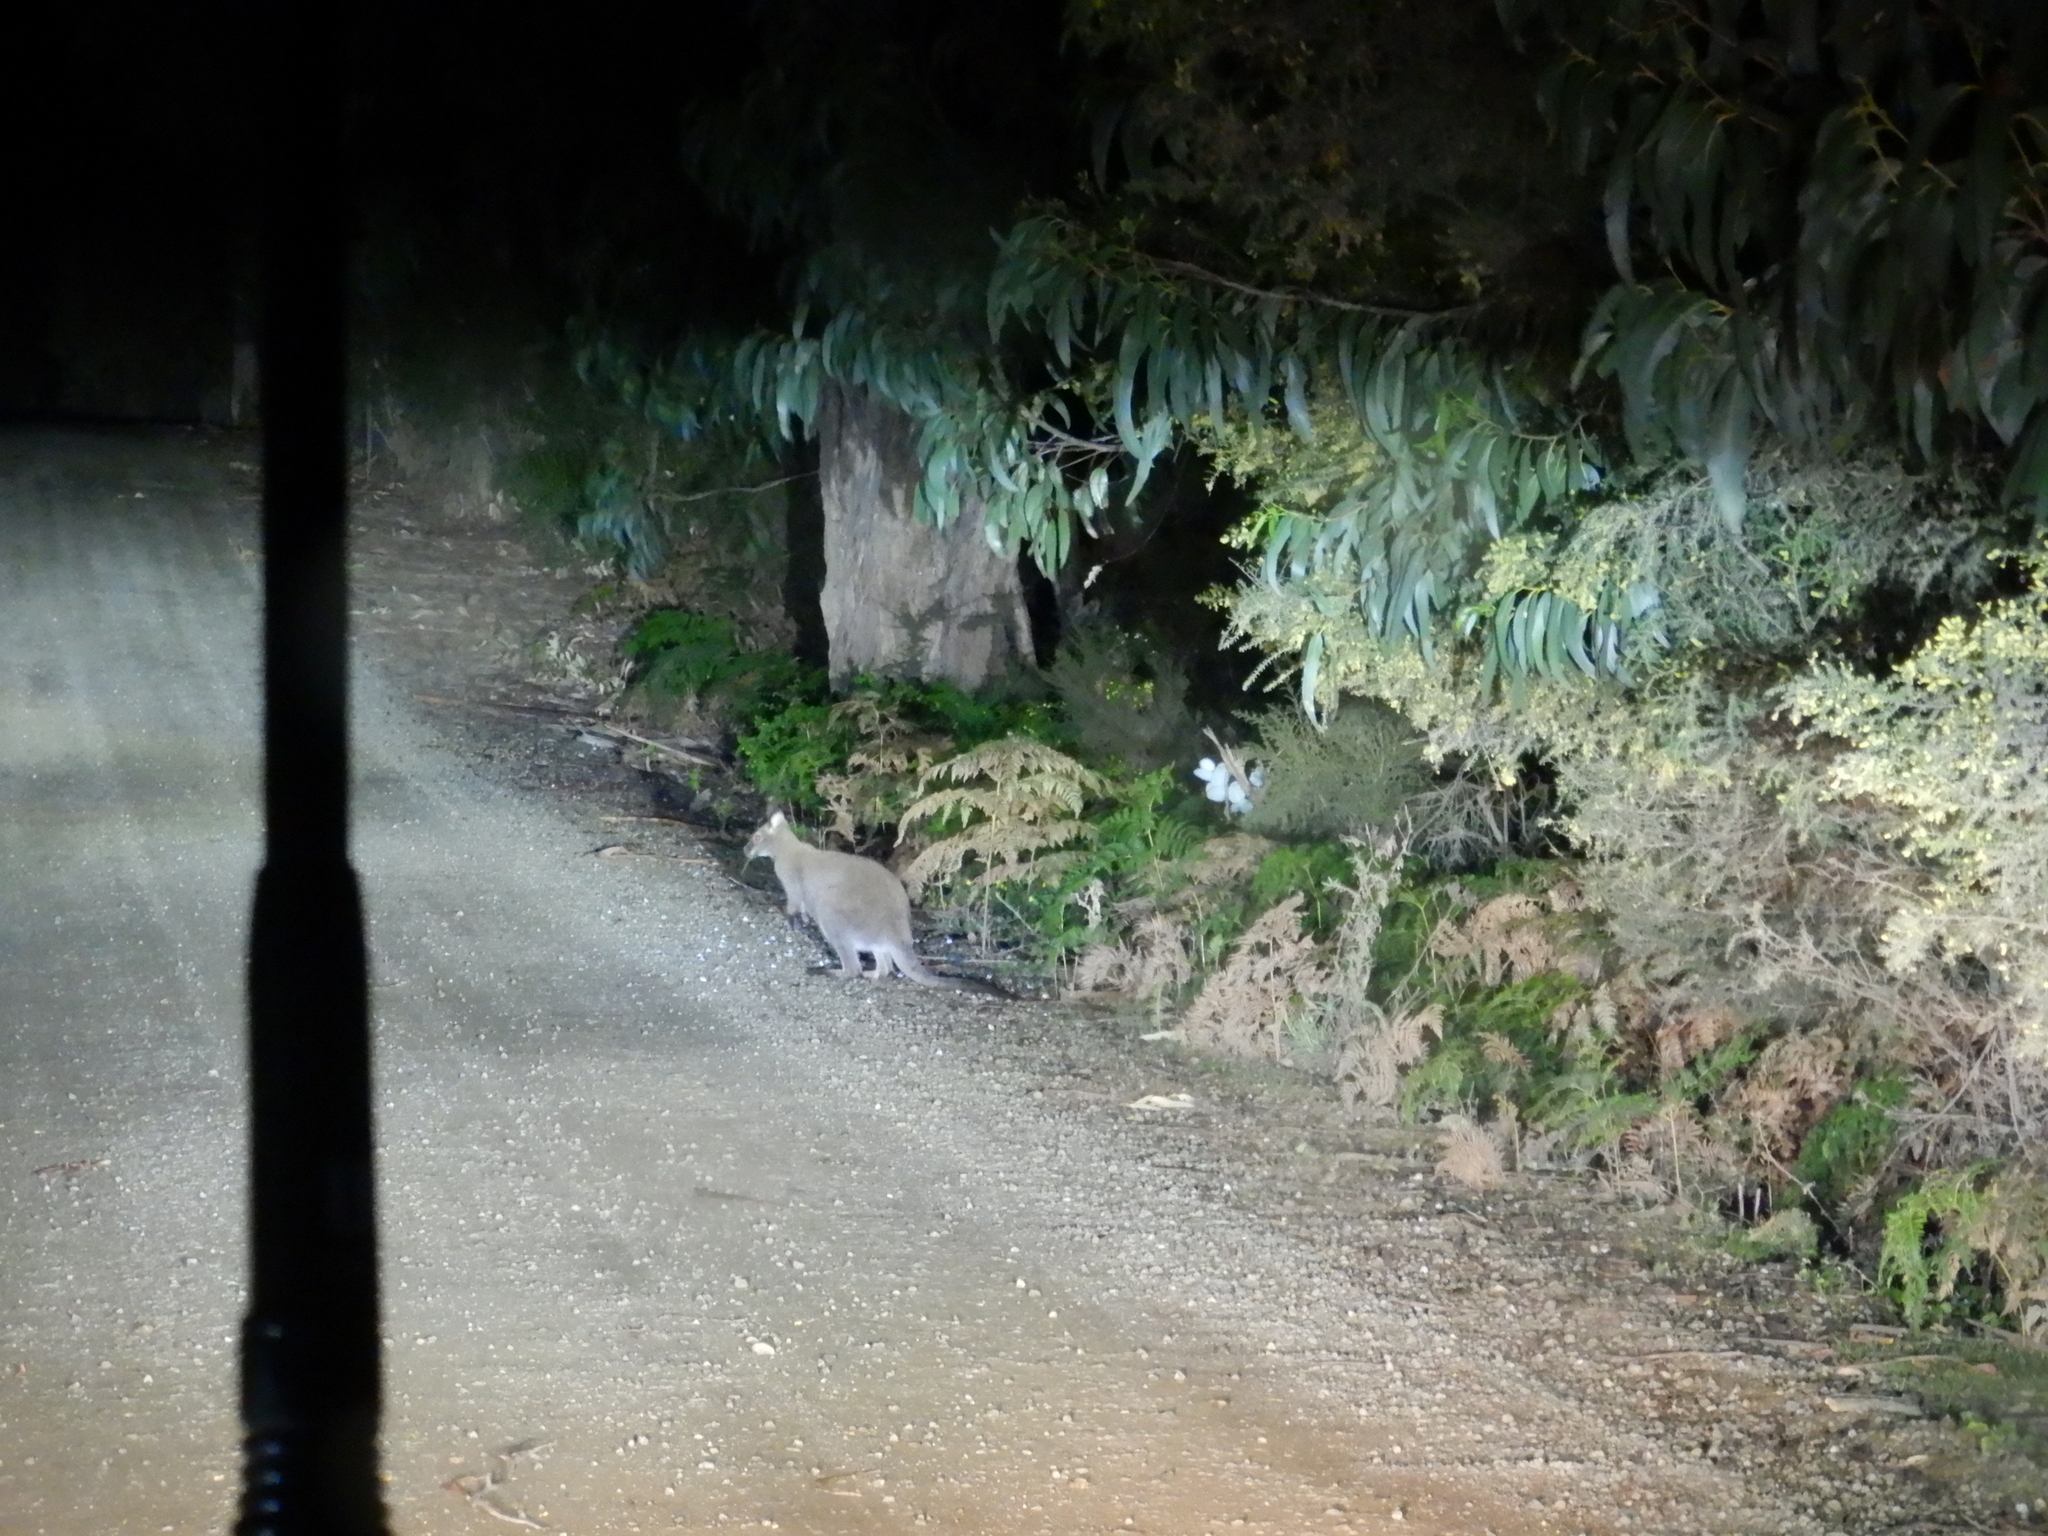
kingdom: Animalia
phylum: Chordata
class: Mammalia
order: Diprotodontia
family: Macropodidae
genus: Notamacropus
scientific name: Notamacropus rufogriseus
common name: Red-necked wallaby
